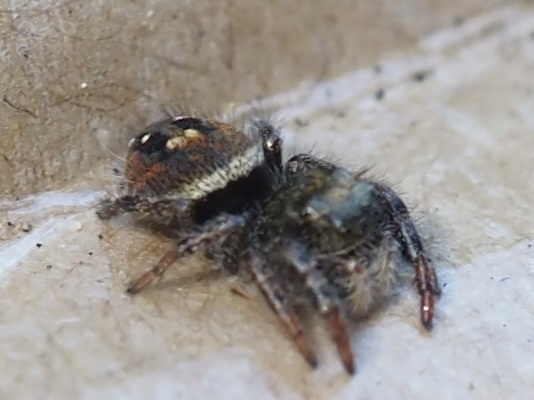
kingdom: Animalia
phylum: Arthropoda
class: Arachnida
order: Araneae
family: Salticidae
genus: Phidippus
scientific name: Phidippus johnsoni
